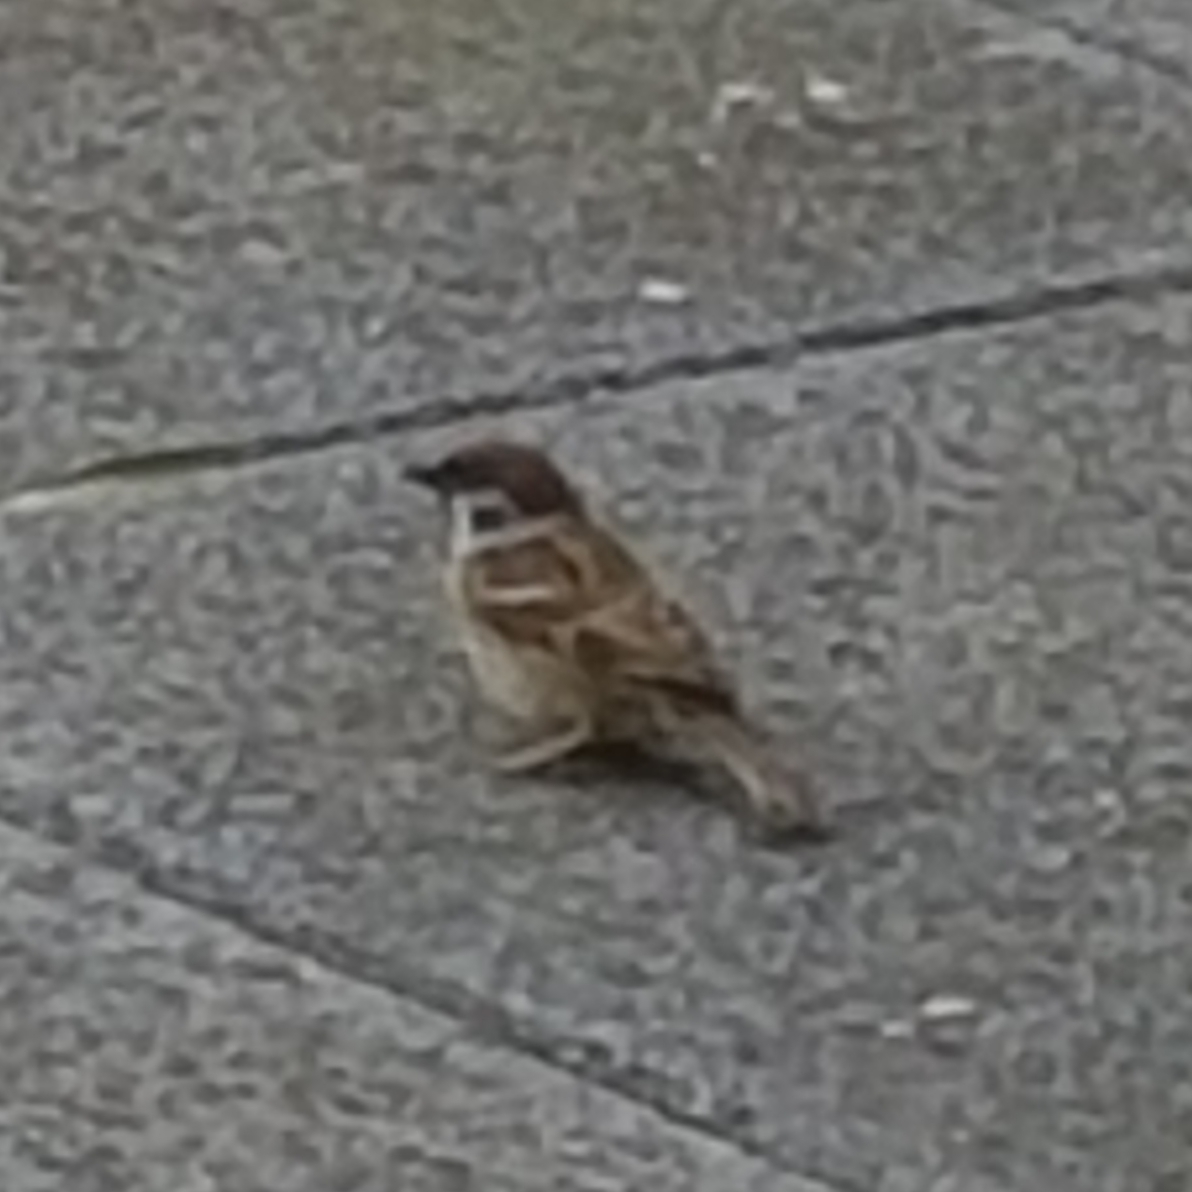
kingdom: Animalia
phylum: Chordata
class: Aves
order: Passeriformes
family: Passeridae
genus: Passer
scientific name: Passer montanus
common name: Eurasian tree sparrow
